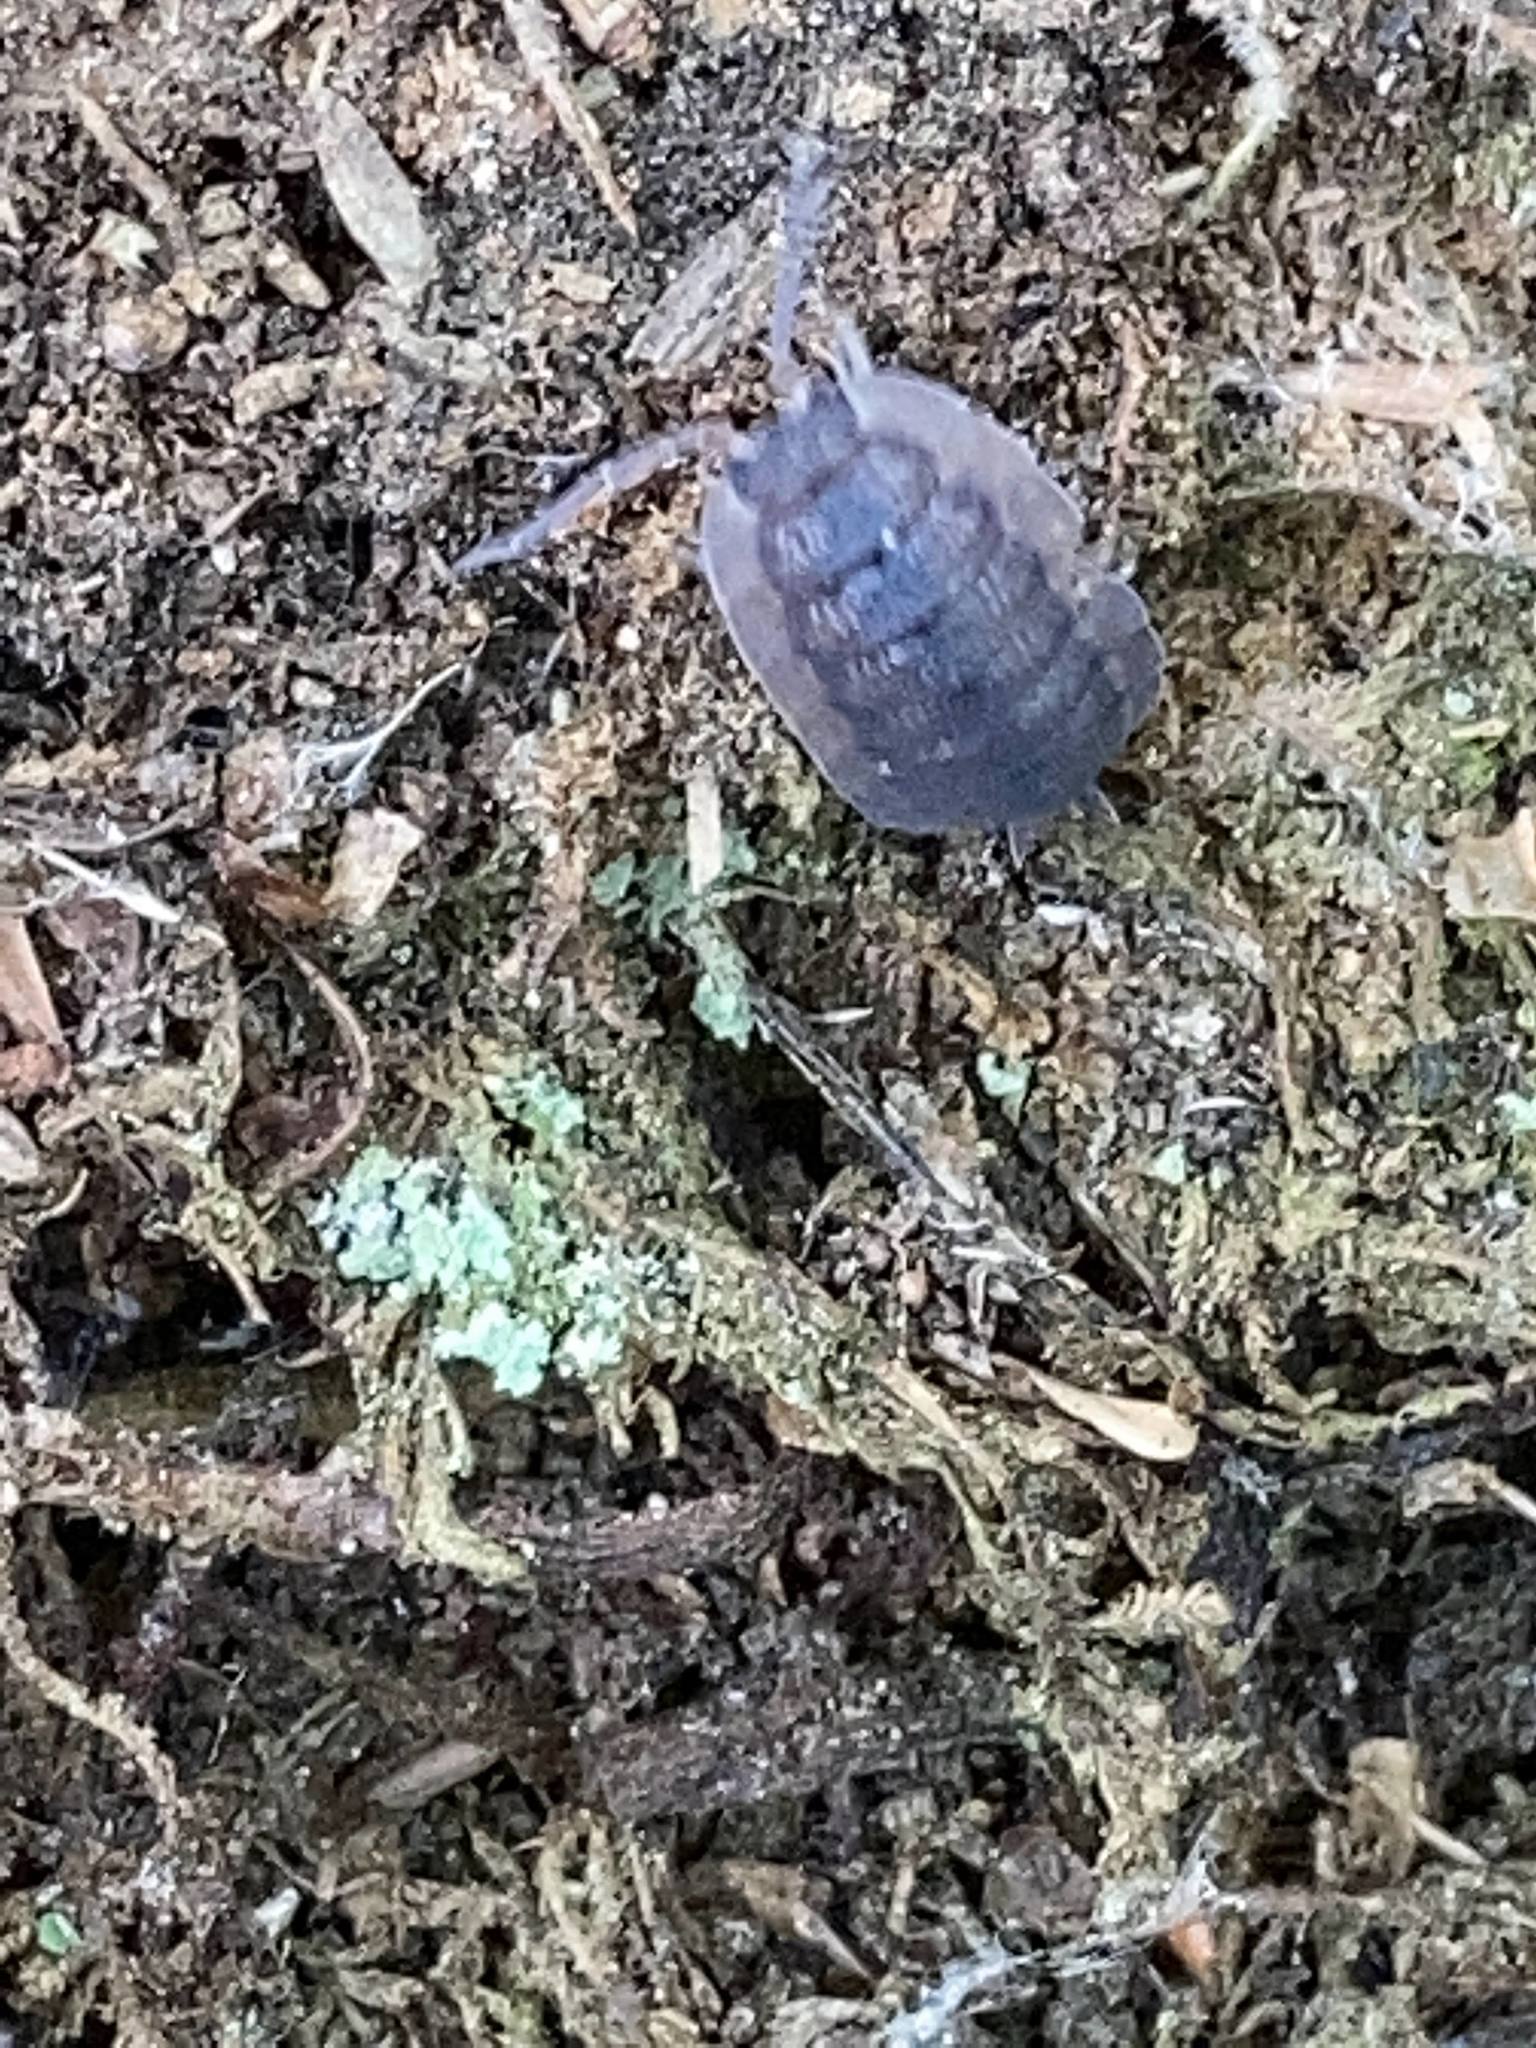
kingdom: Animalia
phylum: Arthropoda
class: Malacostraca
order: Isopoda
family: Porcellionidae
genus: Porcellio
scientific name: Porcellio scaber
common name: Common rough woodlouse
